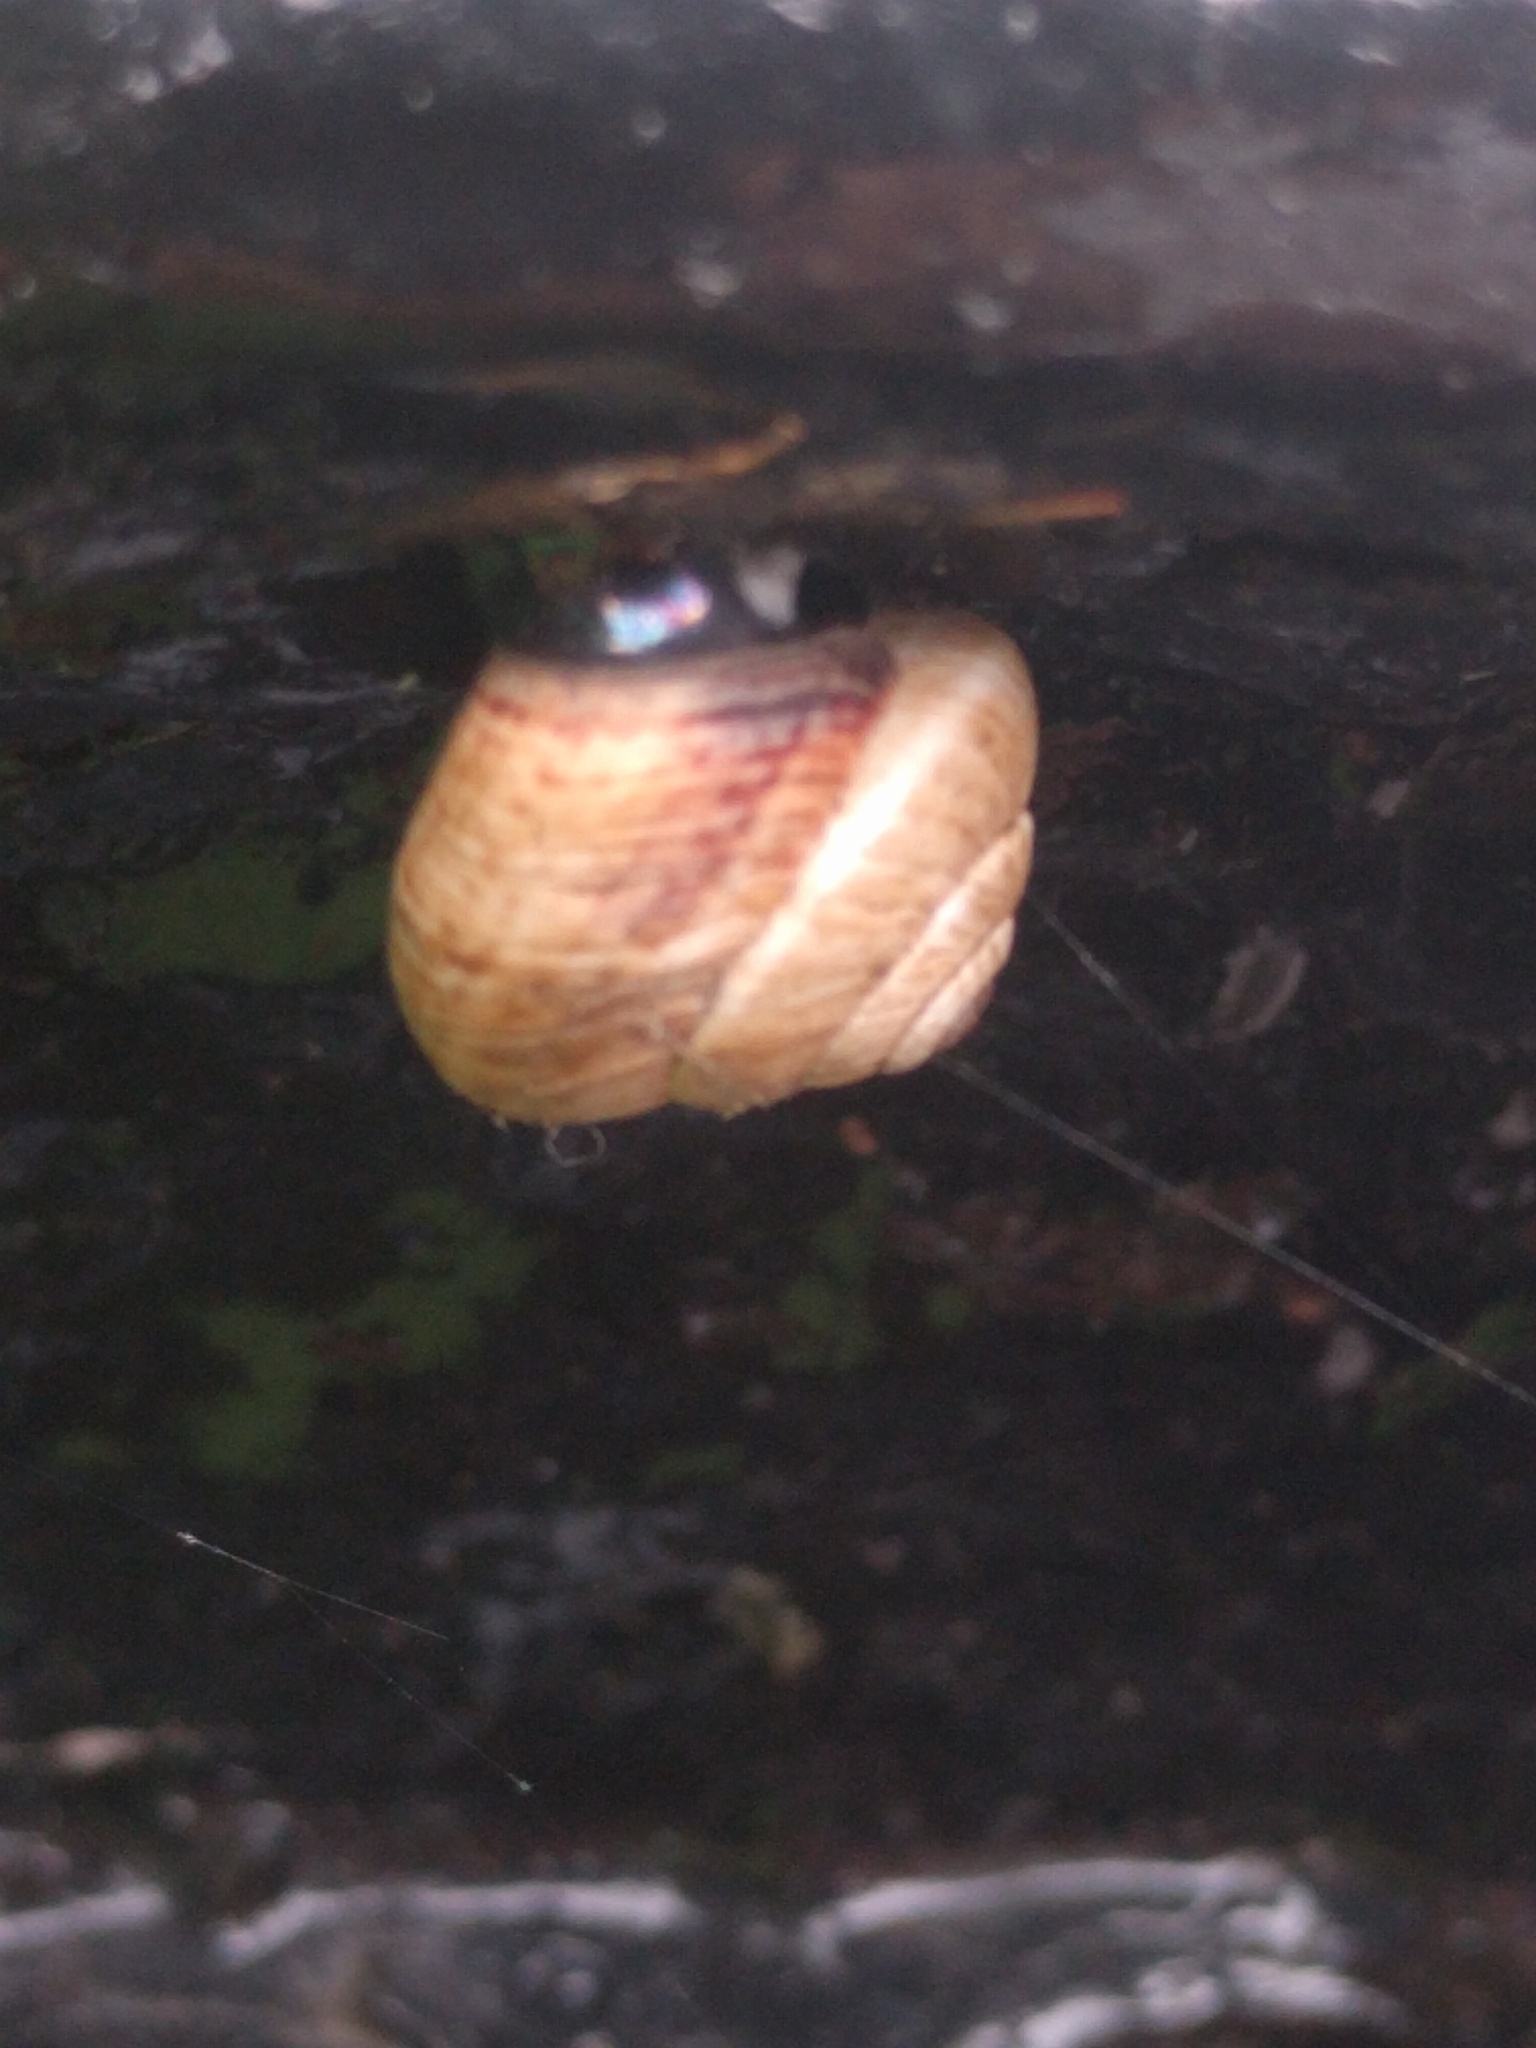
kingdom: Animalia
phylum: Mollusca
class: Gastropoda
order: Stylommatophora
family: Geomitridae
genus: Cernuella
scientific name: Cernuella virgata
